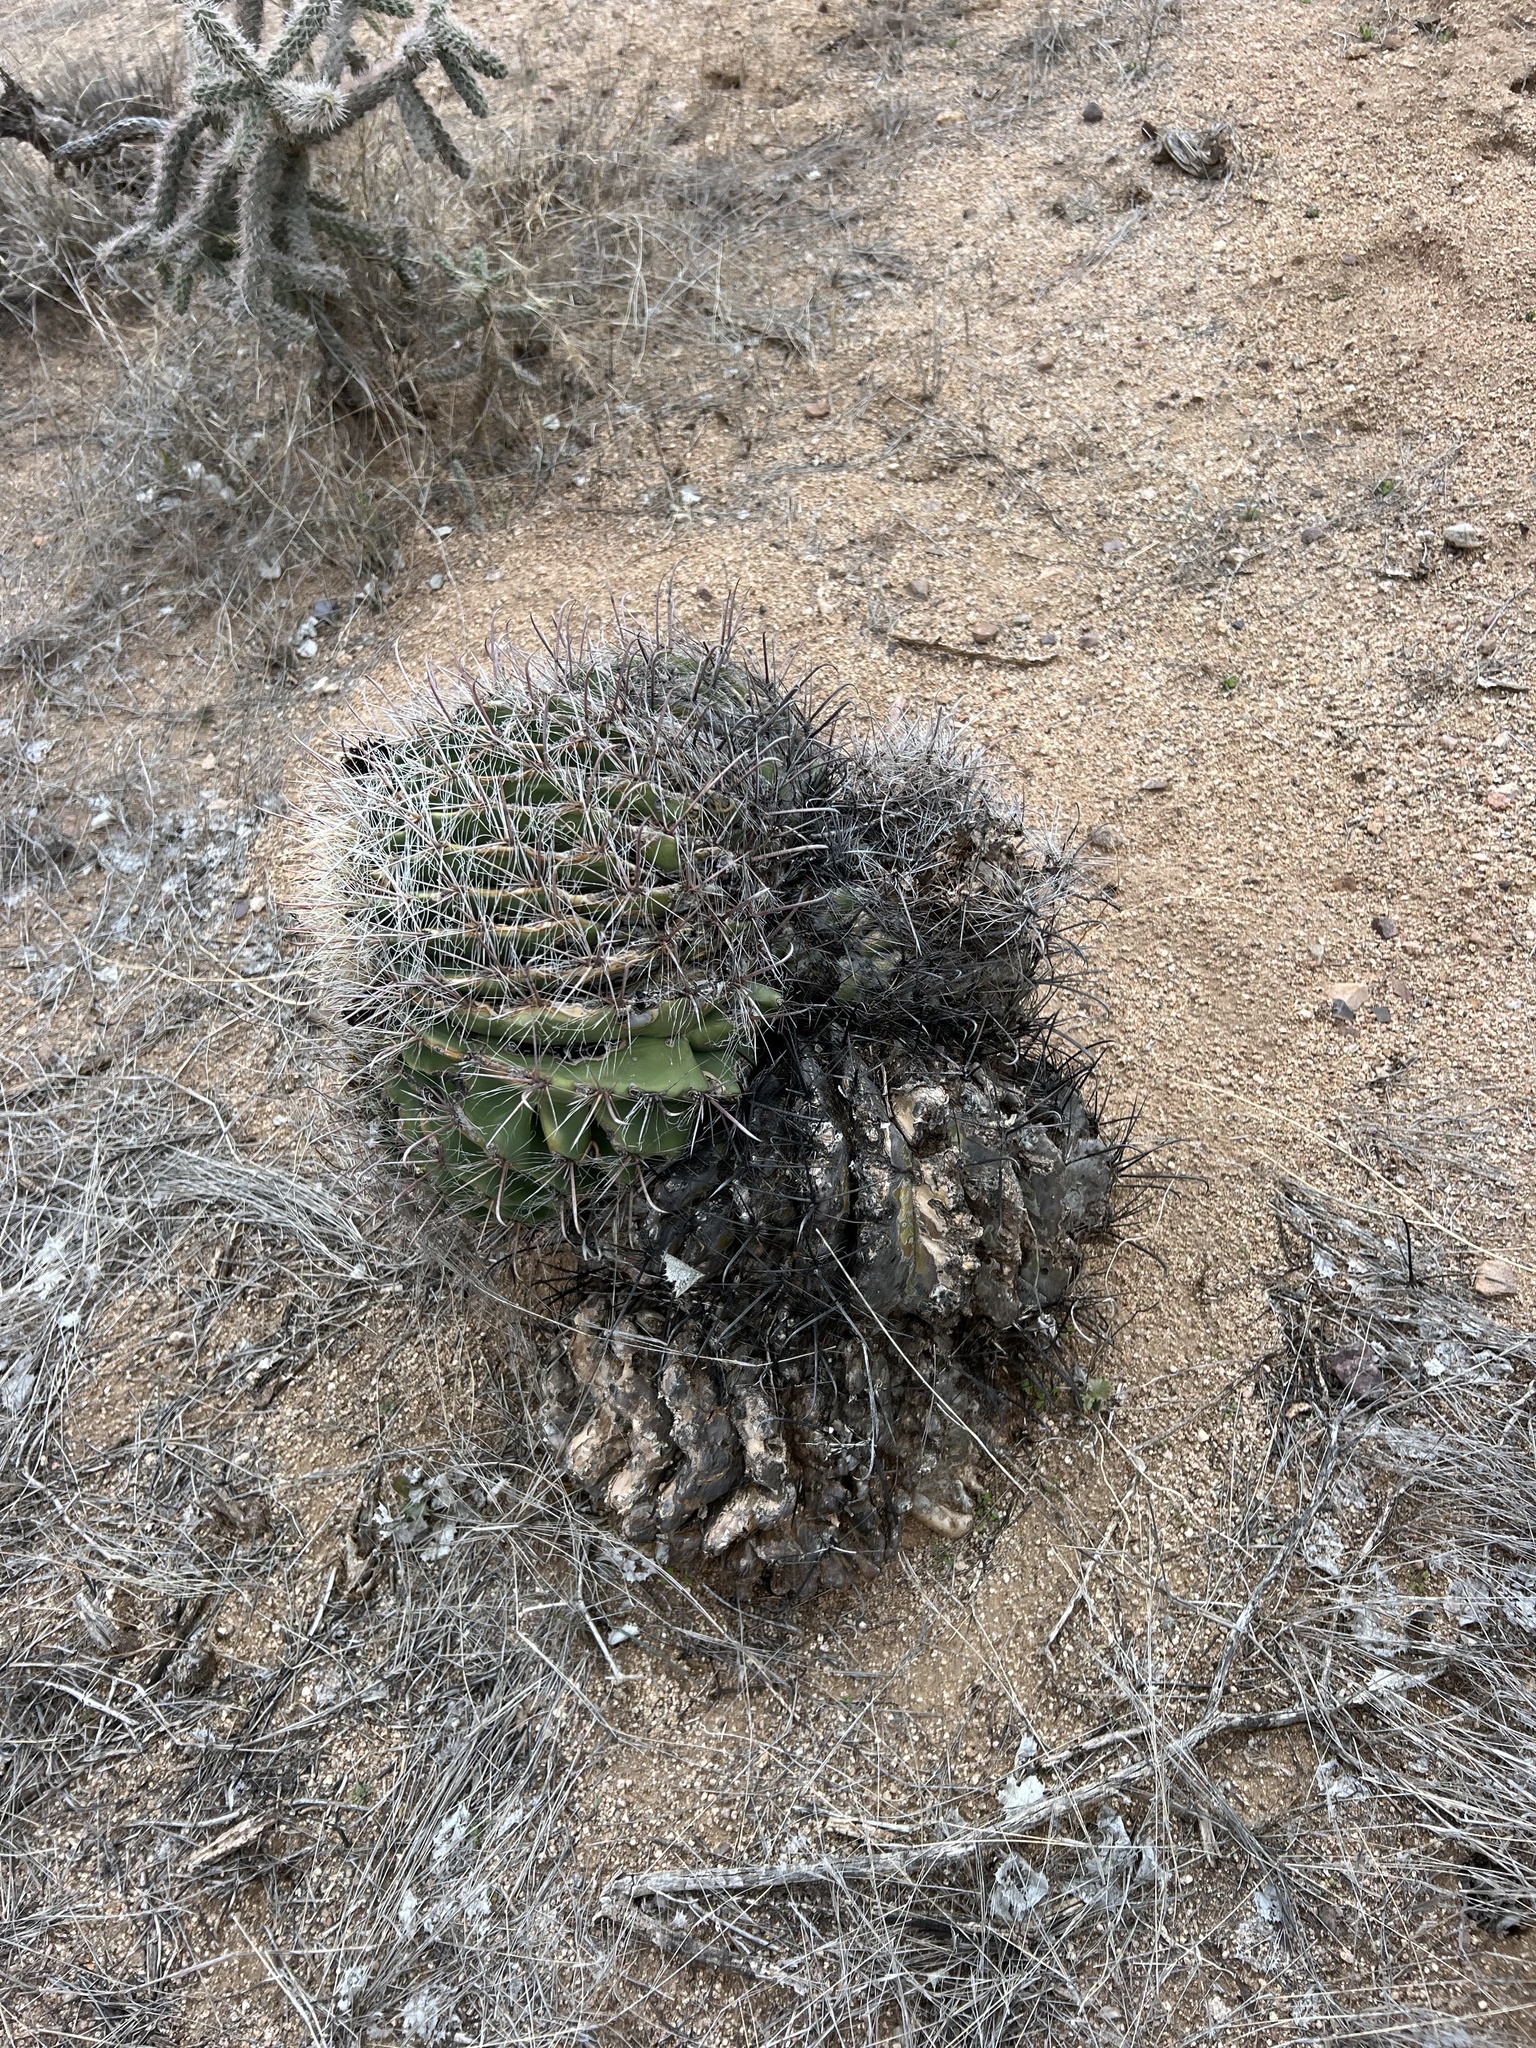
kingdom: Plantae
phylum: Tracheophyta
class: Magnoliopsida
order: Caryophyllales
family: Cactaceae
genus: Ferocactus
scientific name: Ferocactus wislizeni
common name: Candy barrel cactus
